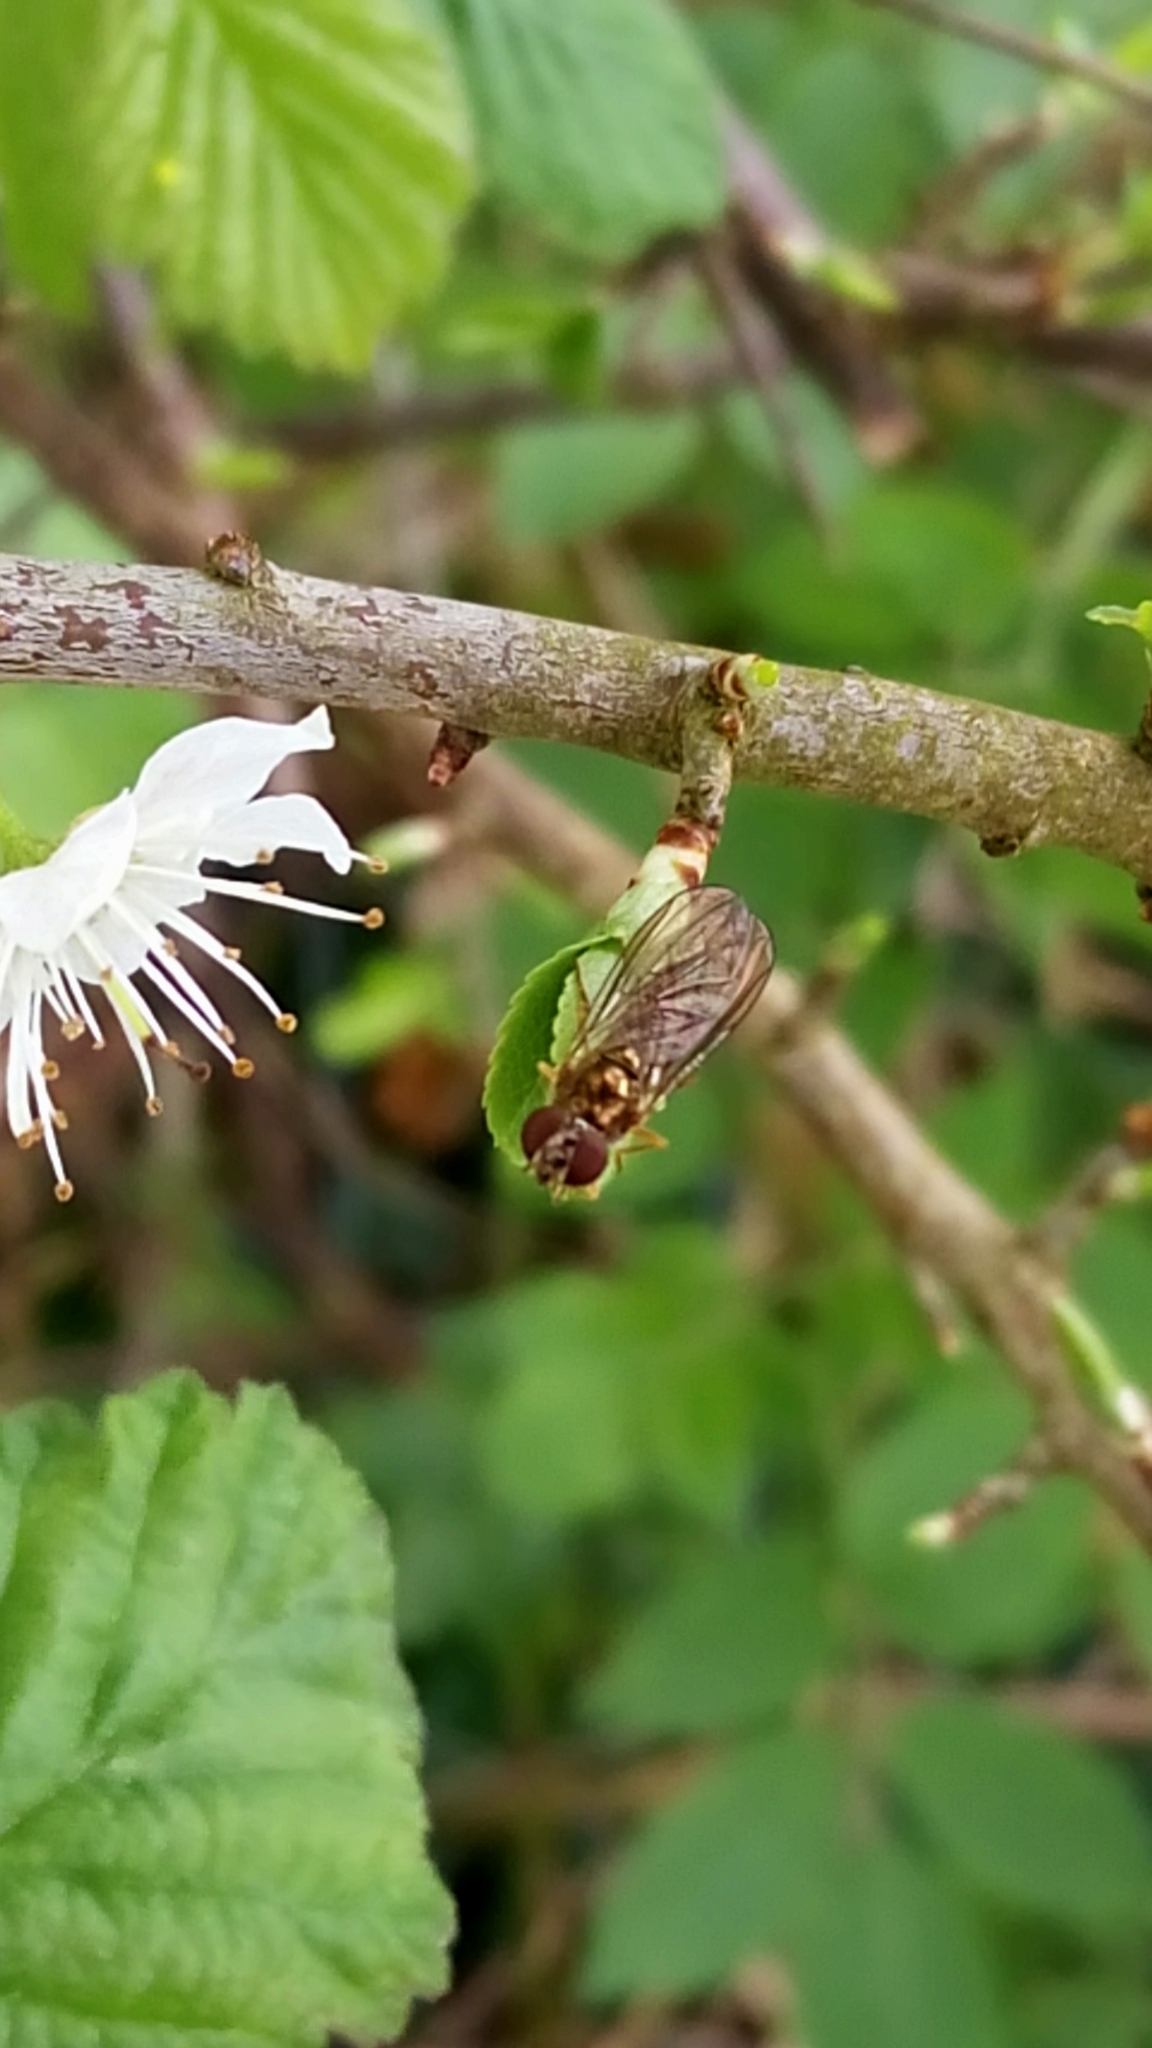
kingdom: Animalia
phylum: Arthropoda
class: Insecta
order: Diptera
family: Syrphidae
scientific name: Syrphidae
